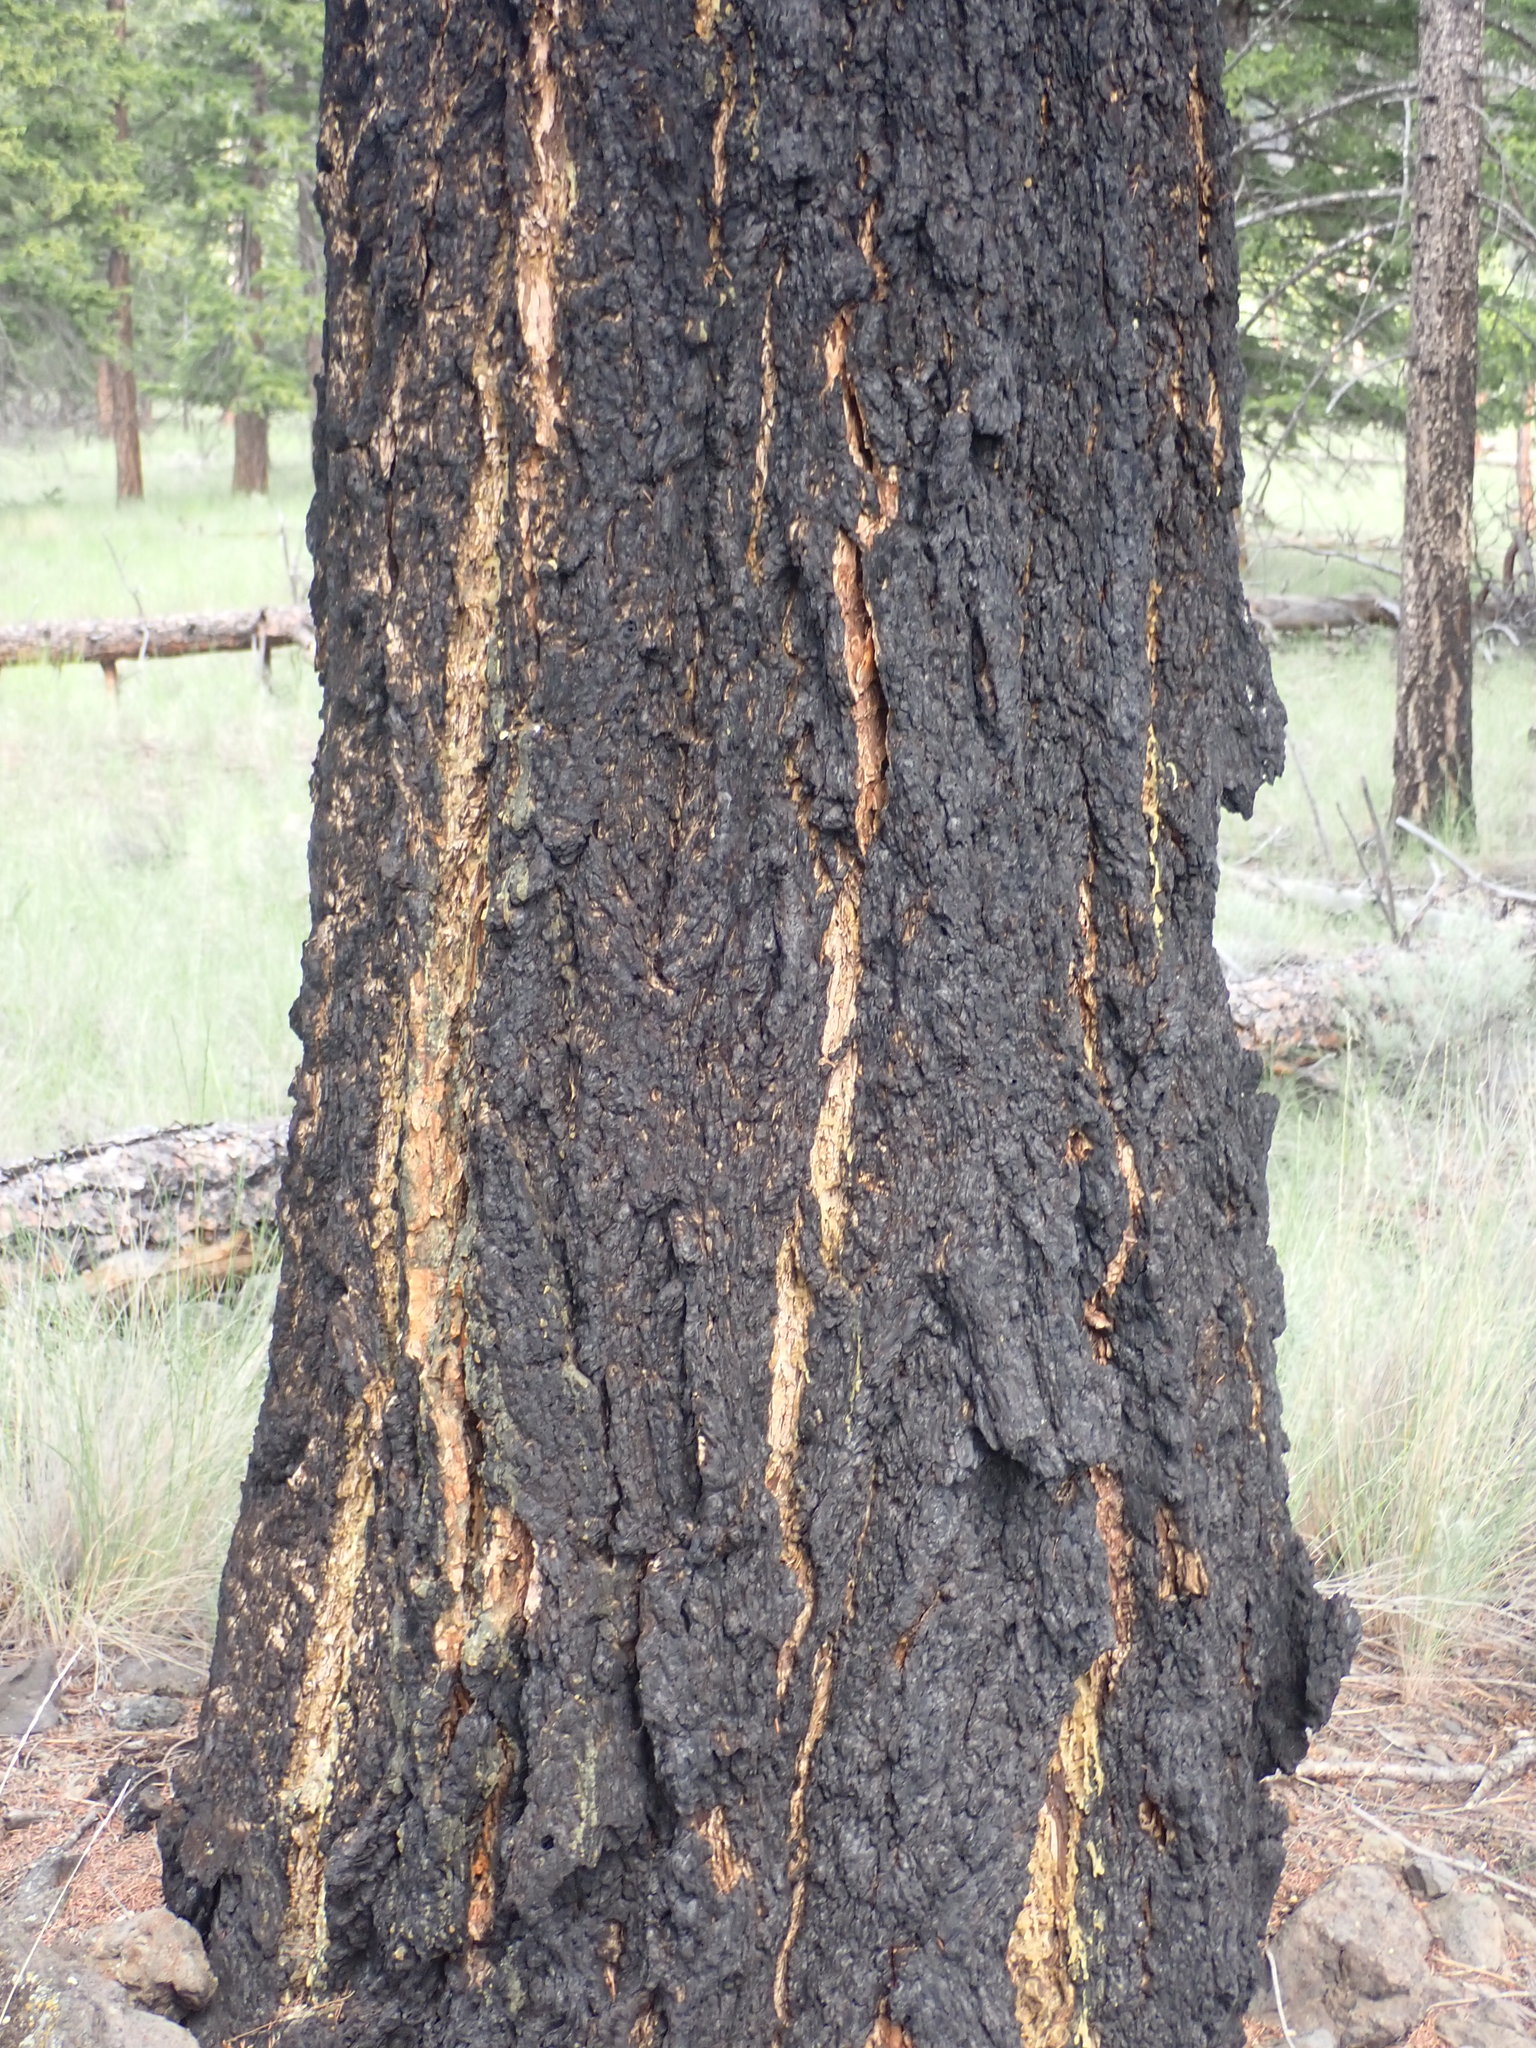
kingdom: Plantae
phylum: Tracheophyta
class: Pinopsida
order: Pinales
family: Pinaceae
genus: Pseudotsuga
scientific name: Pseudotsuga menziesii
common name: Douglas fir
